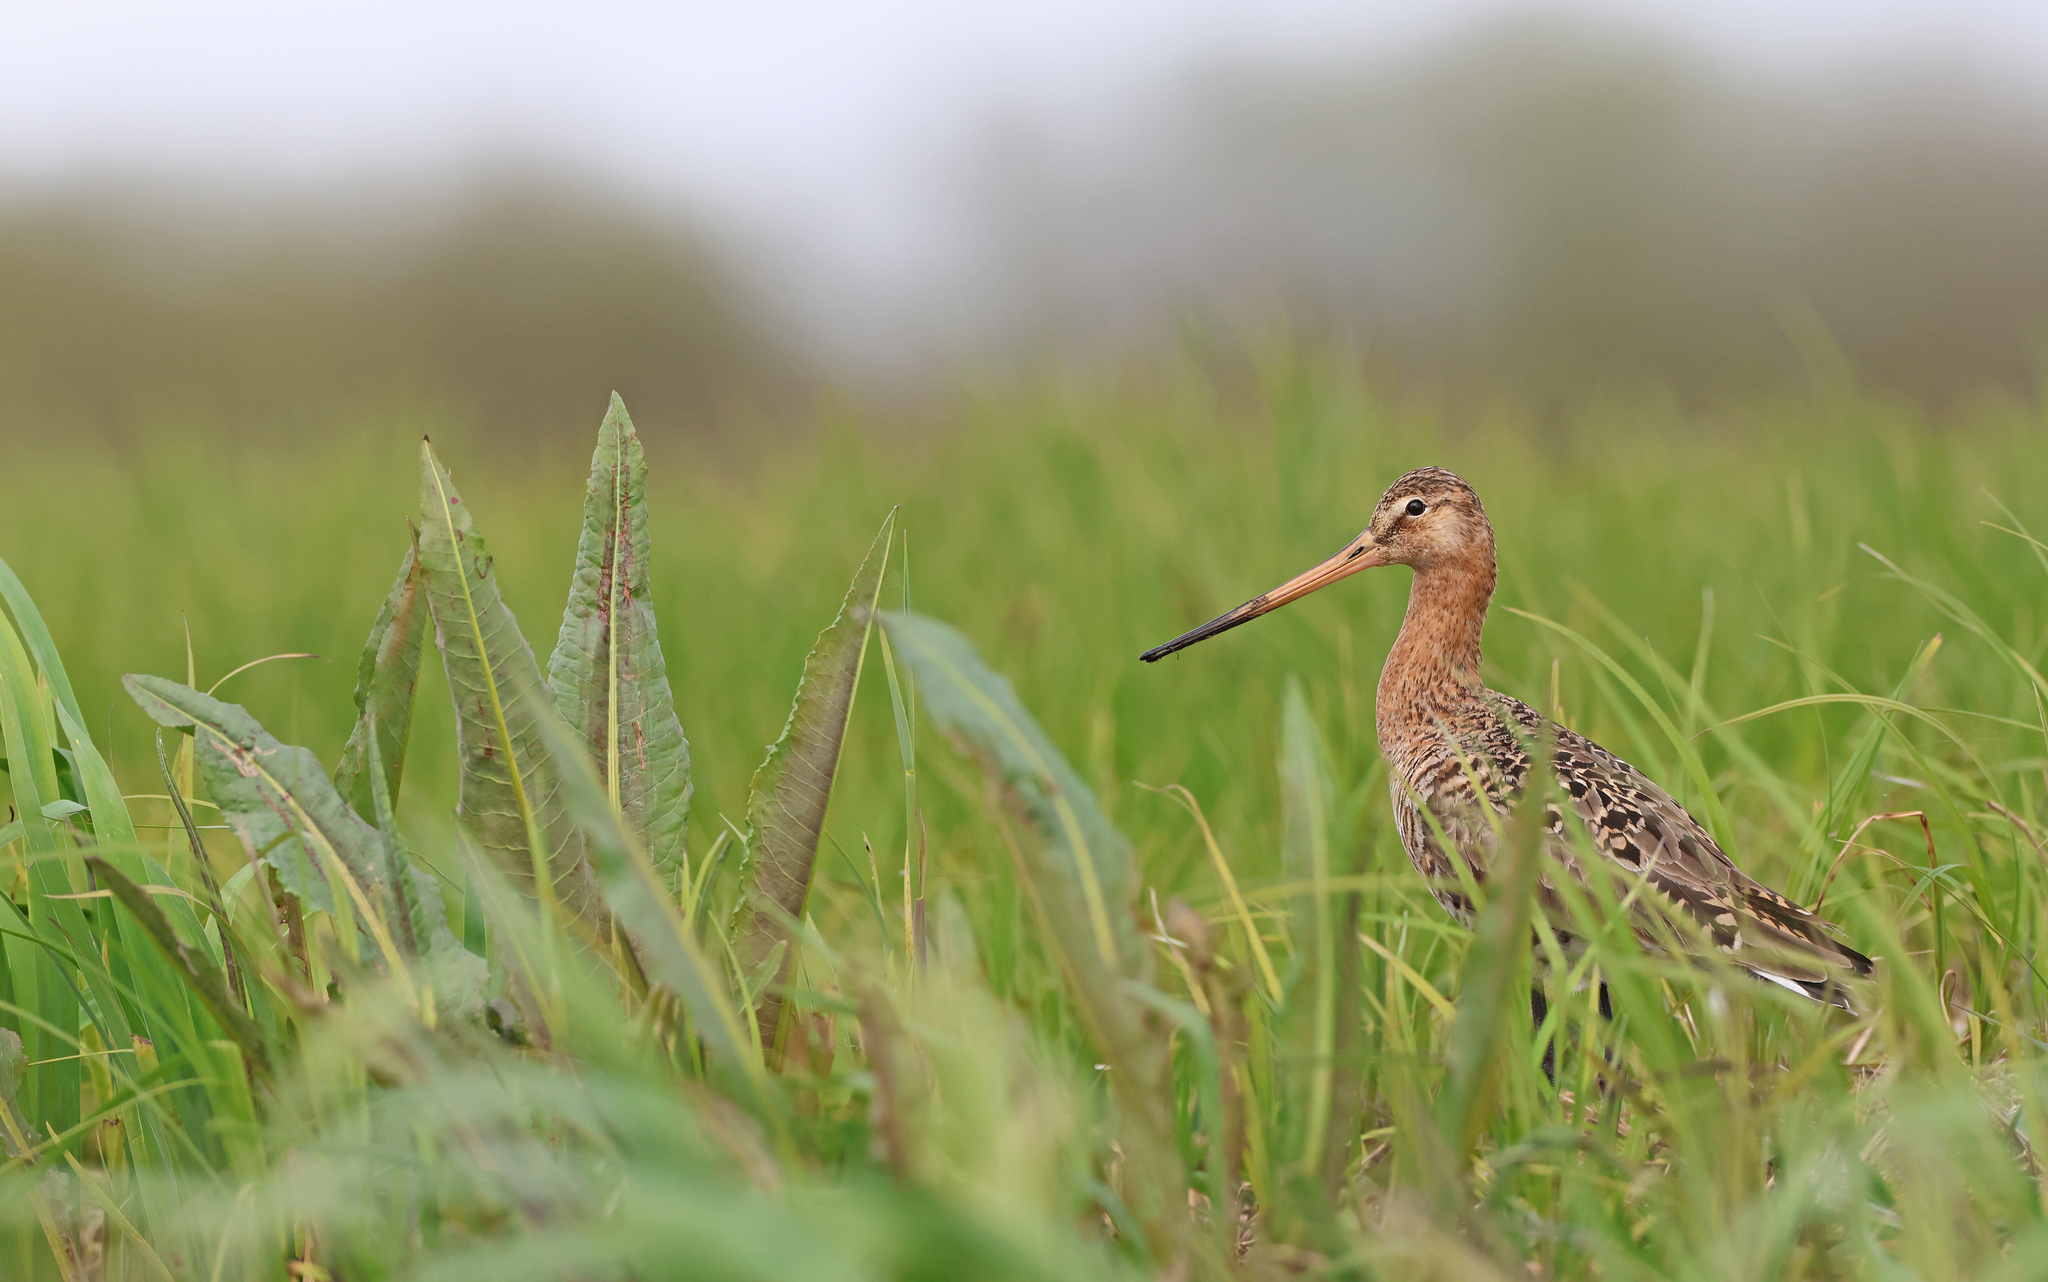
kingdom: Animalia
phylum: Chordata
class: Aves
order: Charadriiformes
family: Scolopacidae
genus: Limosa
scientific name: Limosa limosa
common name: Black-tailed godwit
